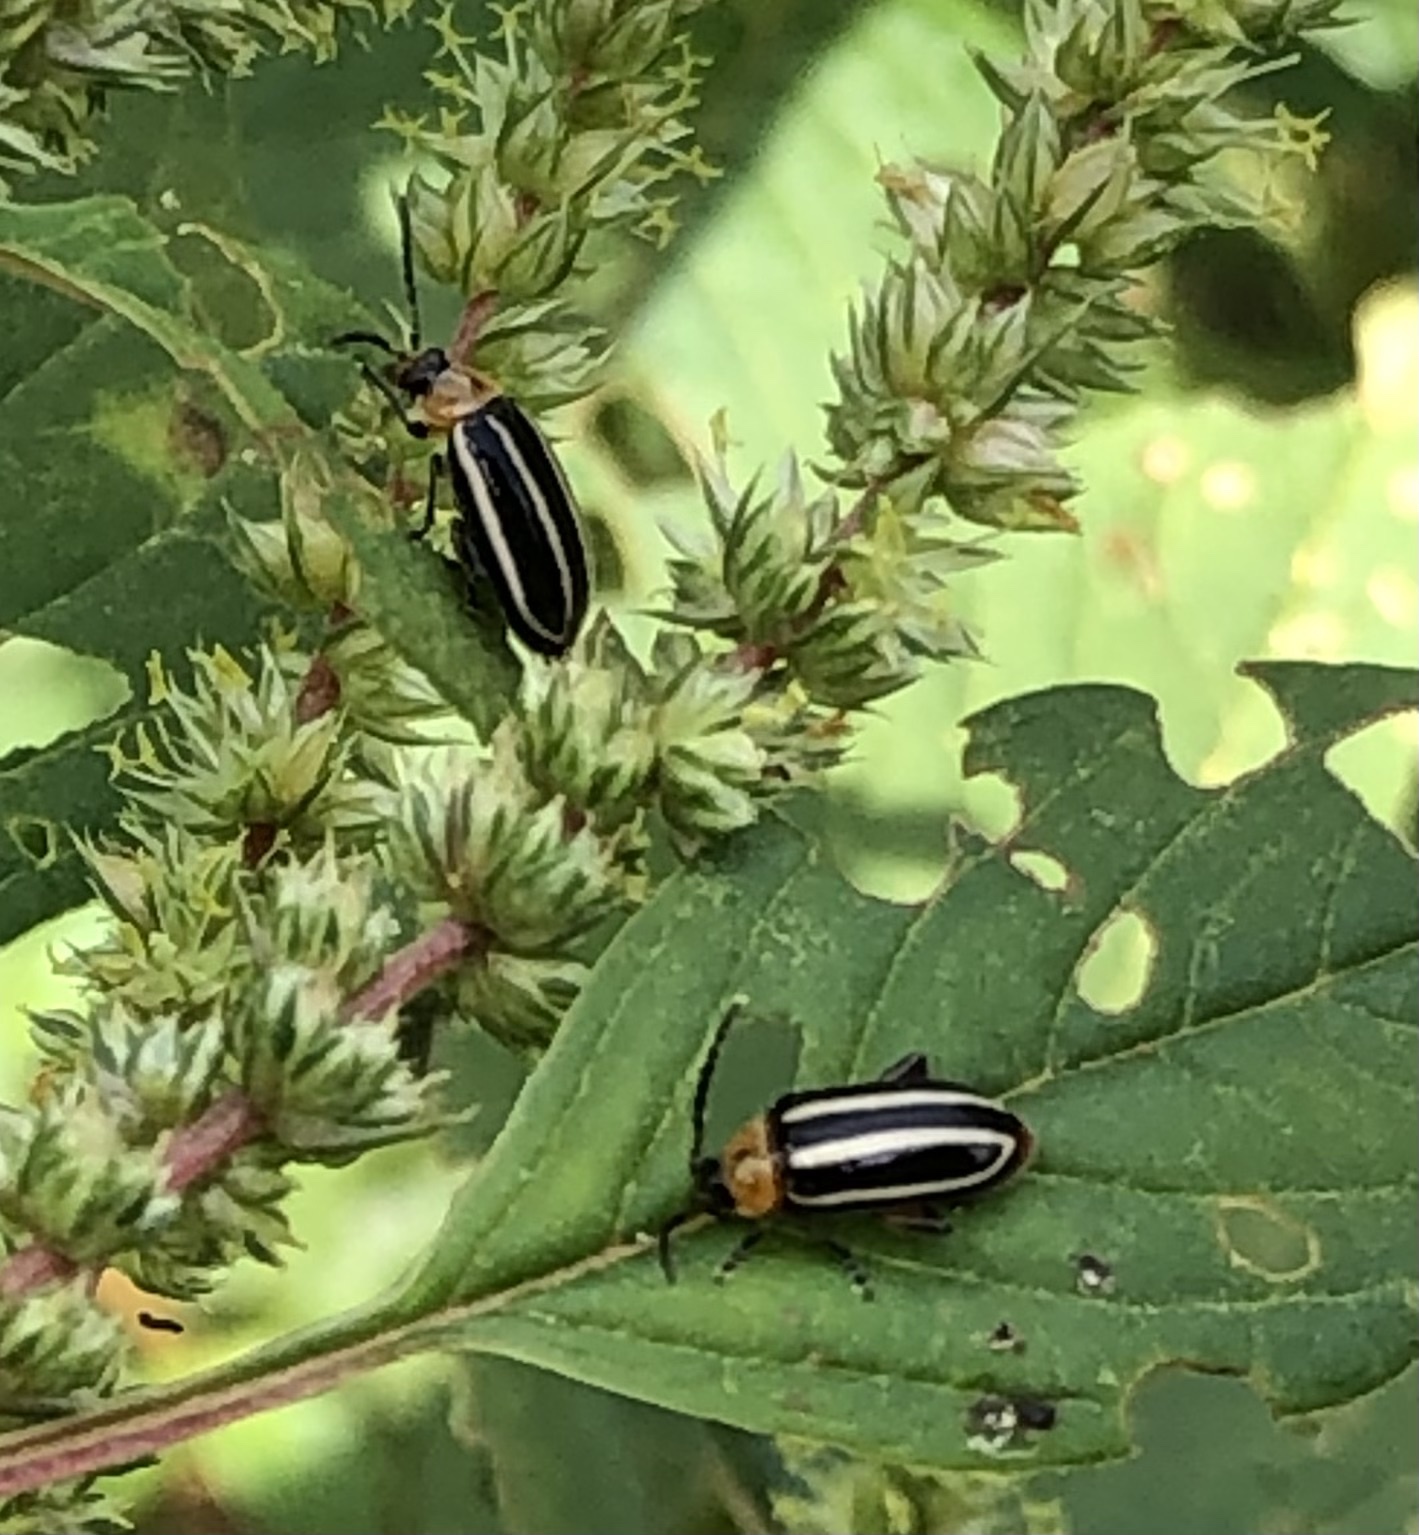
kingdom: Animalia
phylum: Arthropoda
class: Insecta
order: Coleoptera
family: Chrysomelidae
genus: Disonycha
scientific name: Disonycha glabrata
